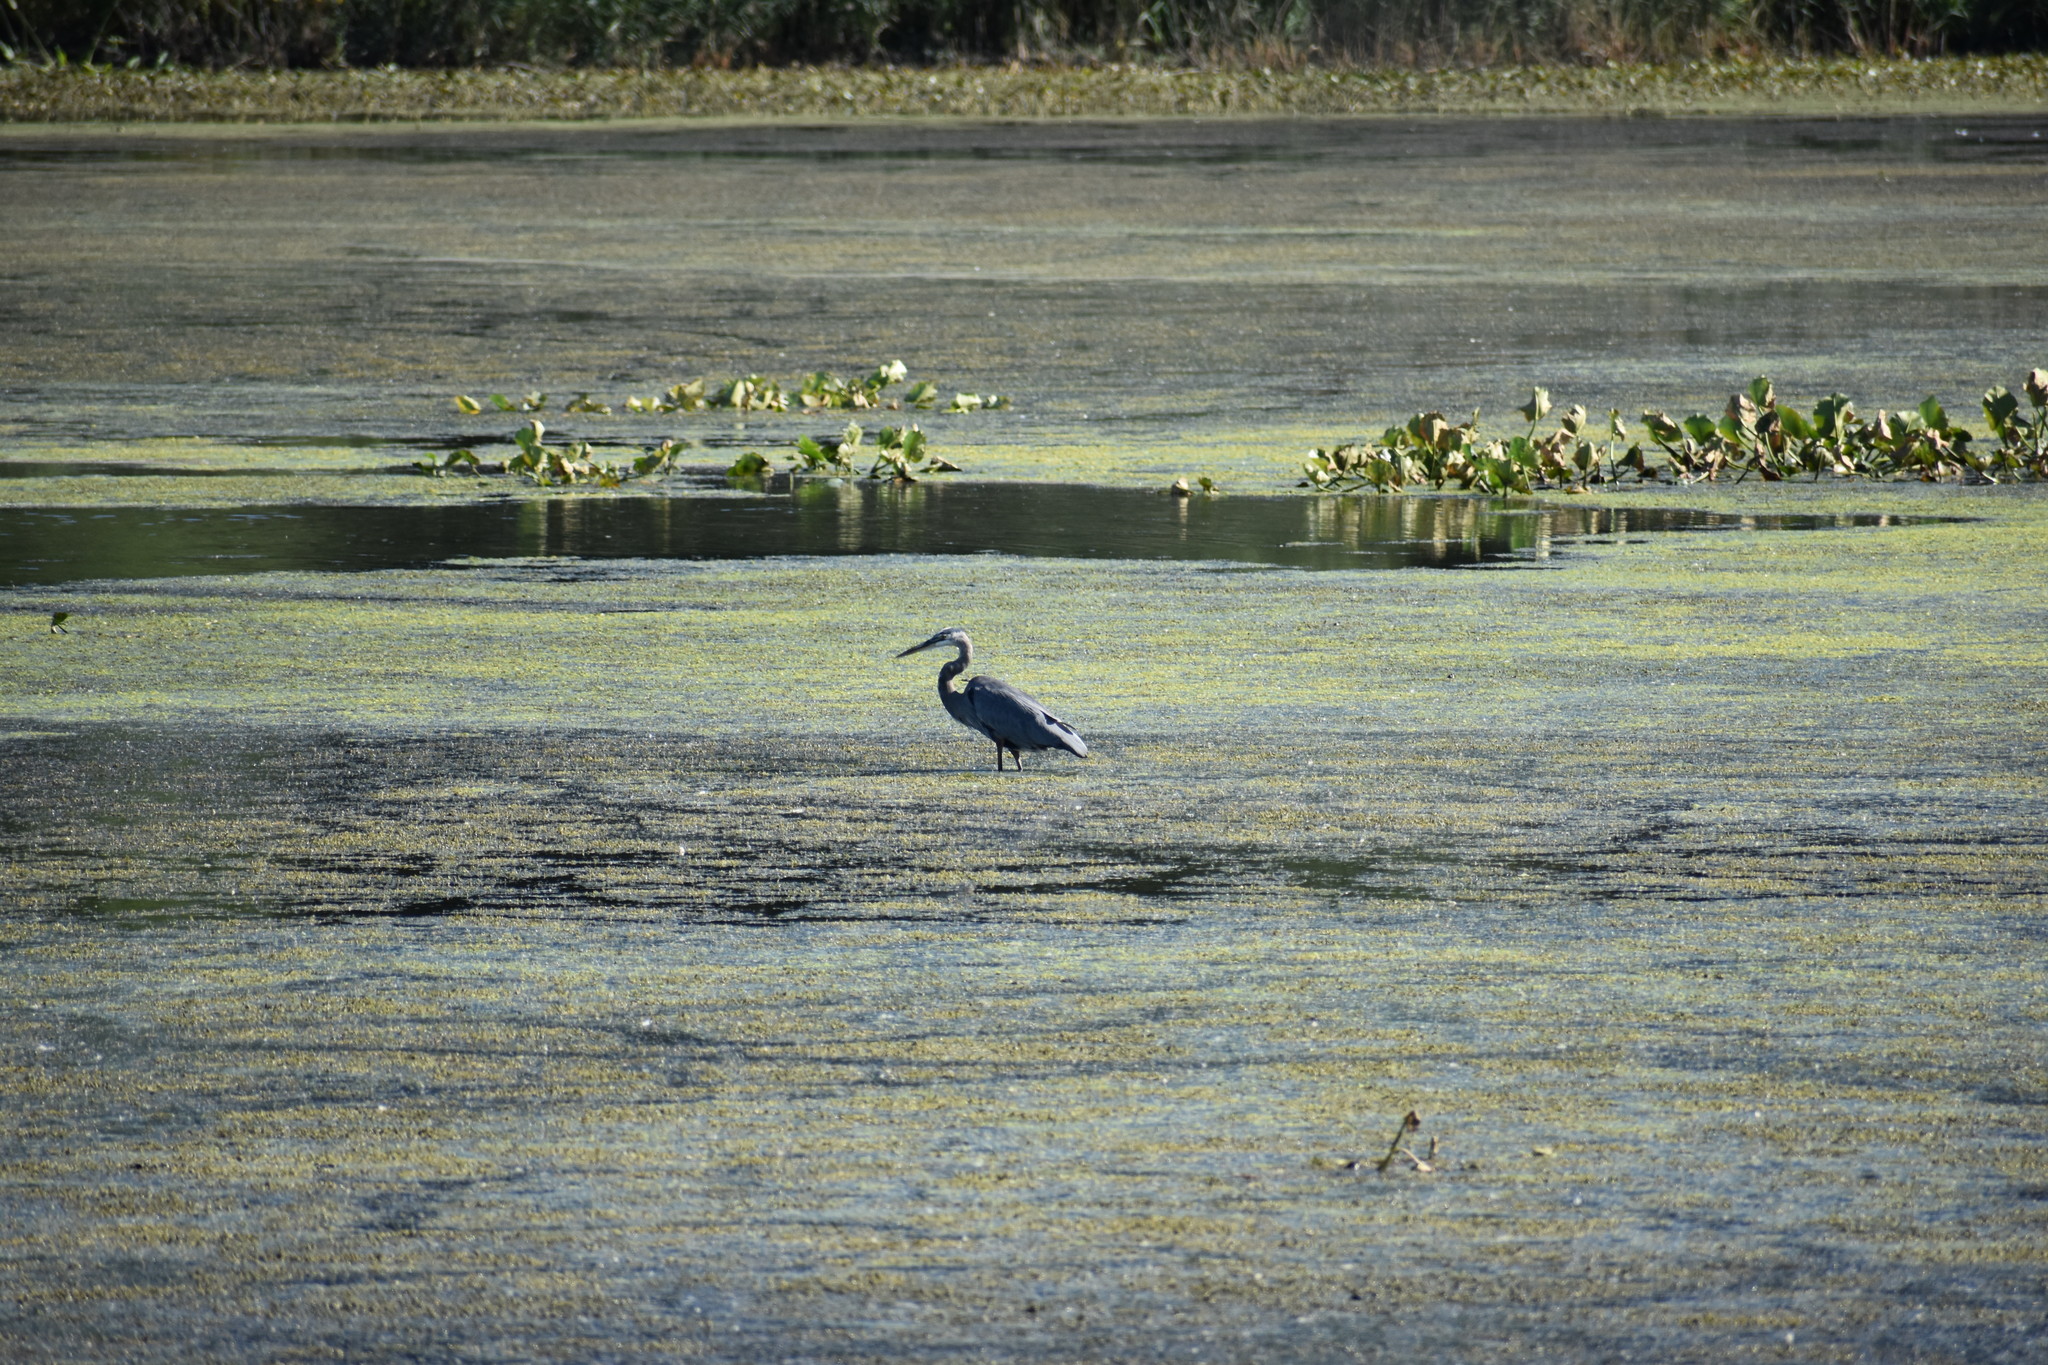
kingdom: Animalia
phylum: Chordata
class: Aves
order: Pelecaniformes
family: Ardeidae
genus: Ardea
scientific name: Ardea herodias
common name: Great blue heron
